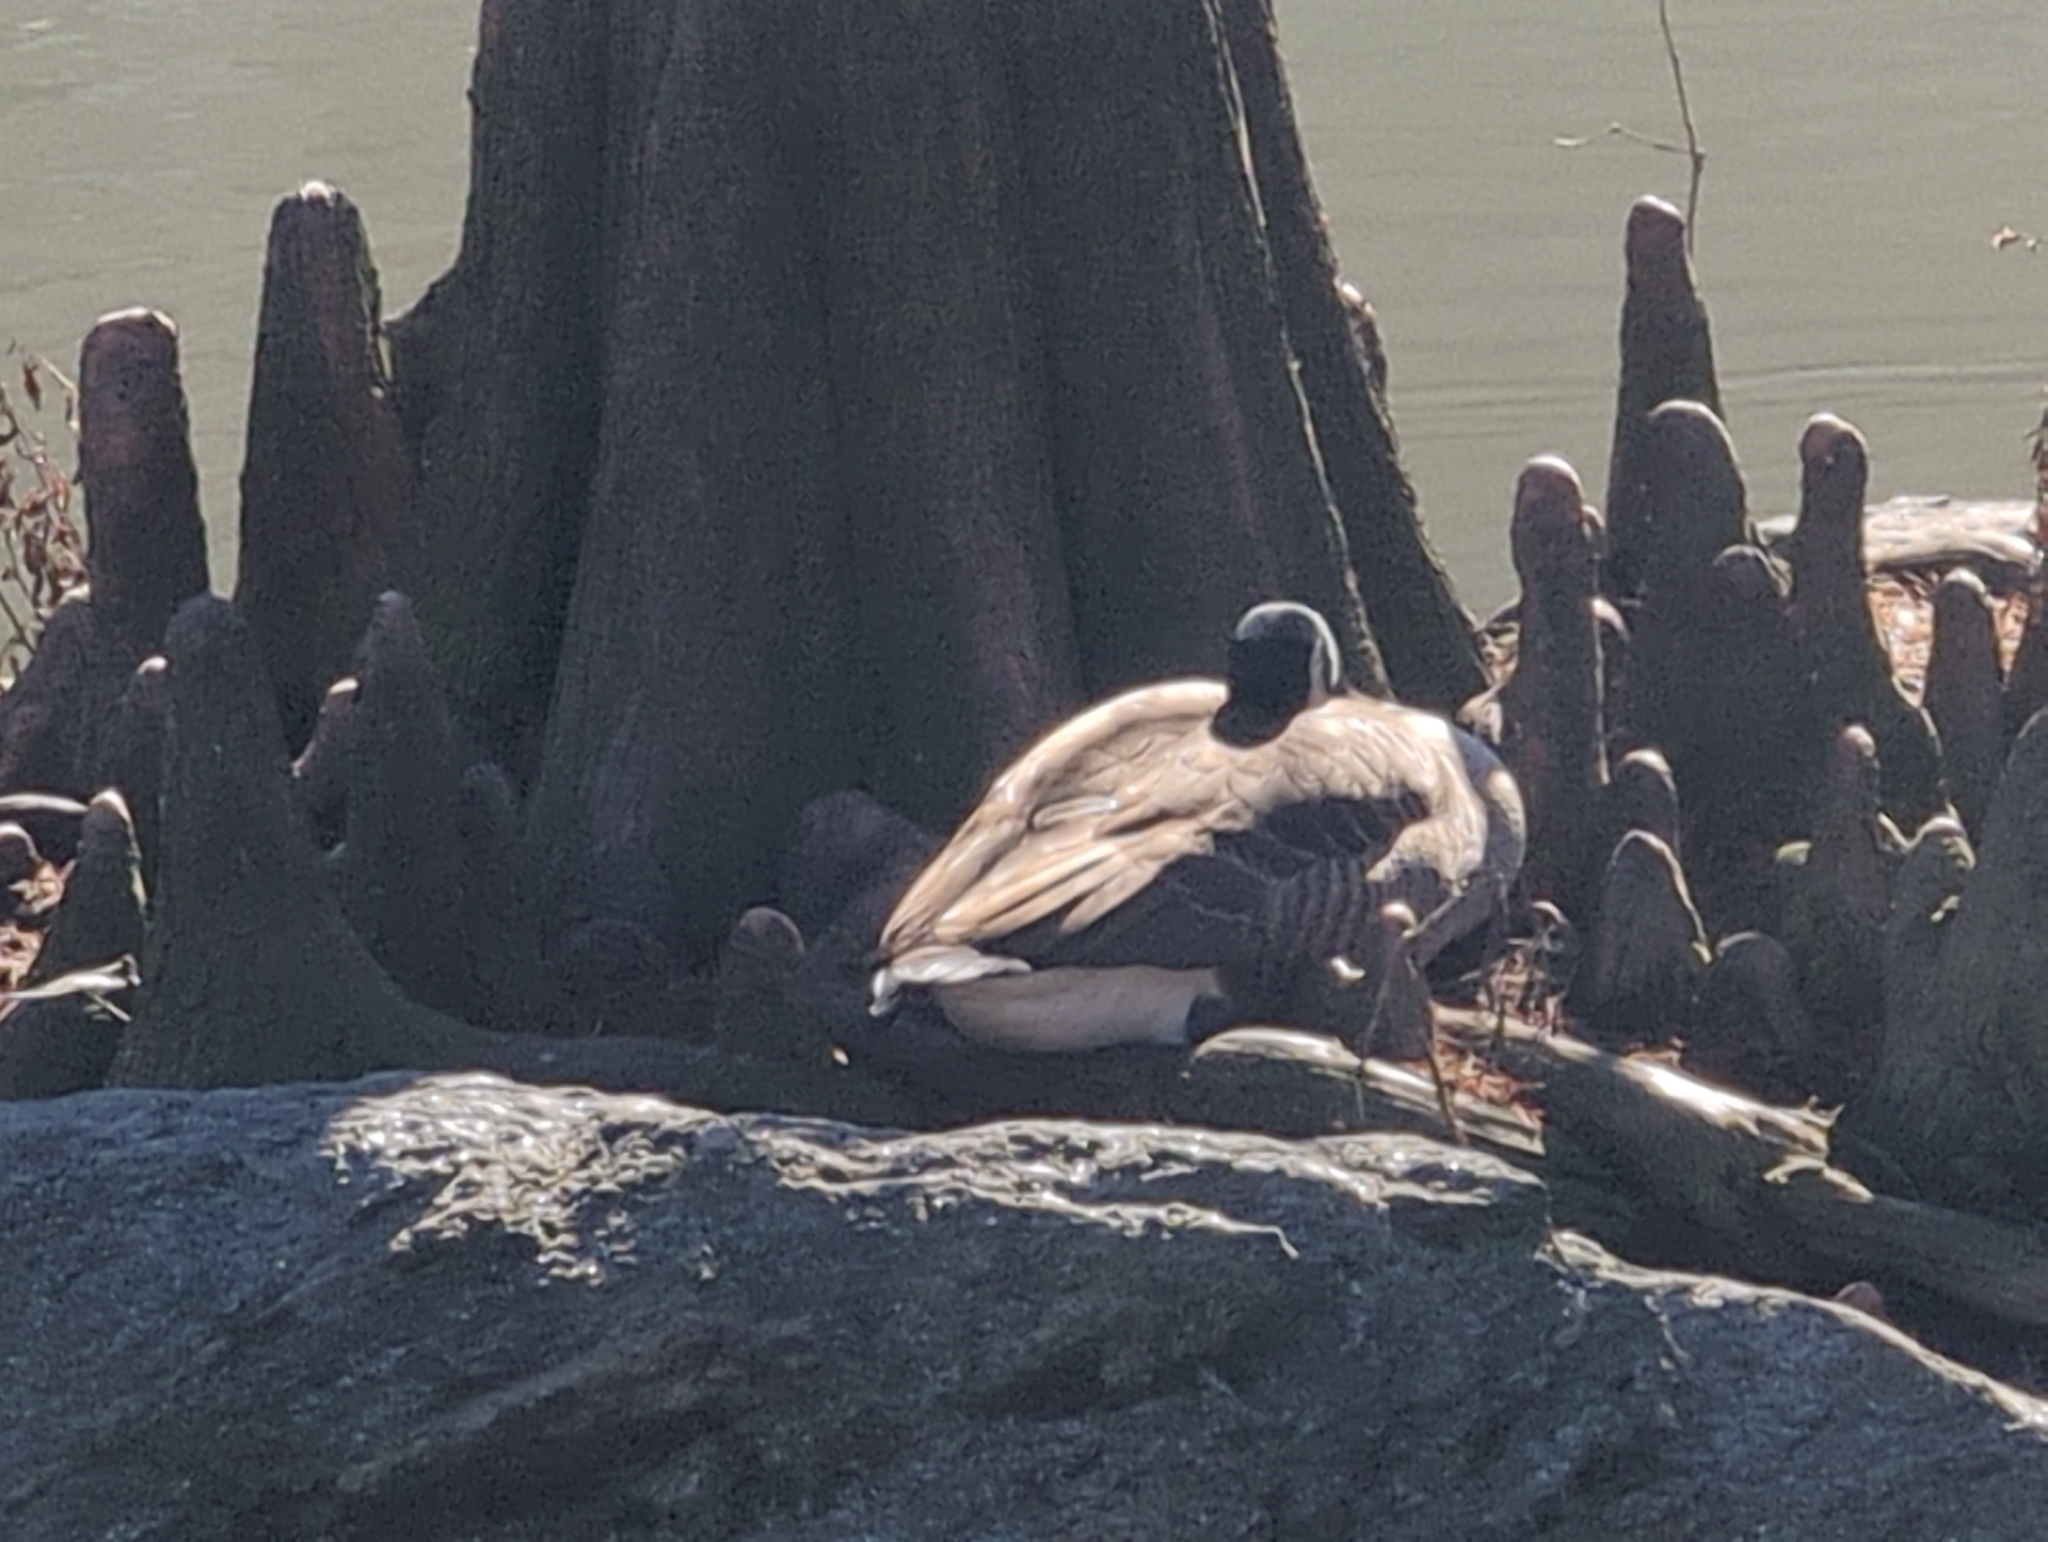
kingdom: Animalia
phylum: Chordata
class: Aves
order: Anseriformes
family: Anatidae
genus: Branta
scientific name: Branta canadensis
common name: Canada goose
